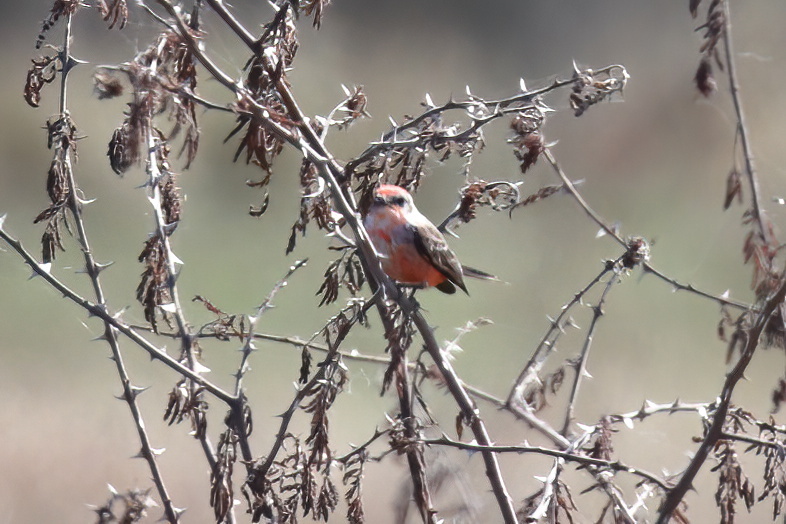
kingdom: Animalia
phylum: Chordata
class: Aves
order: Passeriformes
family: Tyrannidae
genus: Pyrocephalus
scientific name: Pyrocephalus rubinus
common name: Vermilion flycatcher
